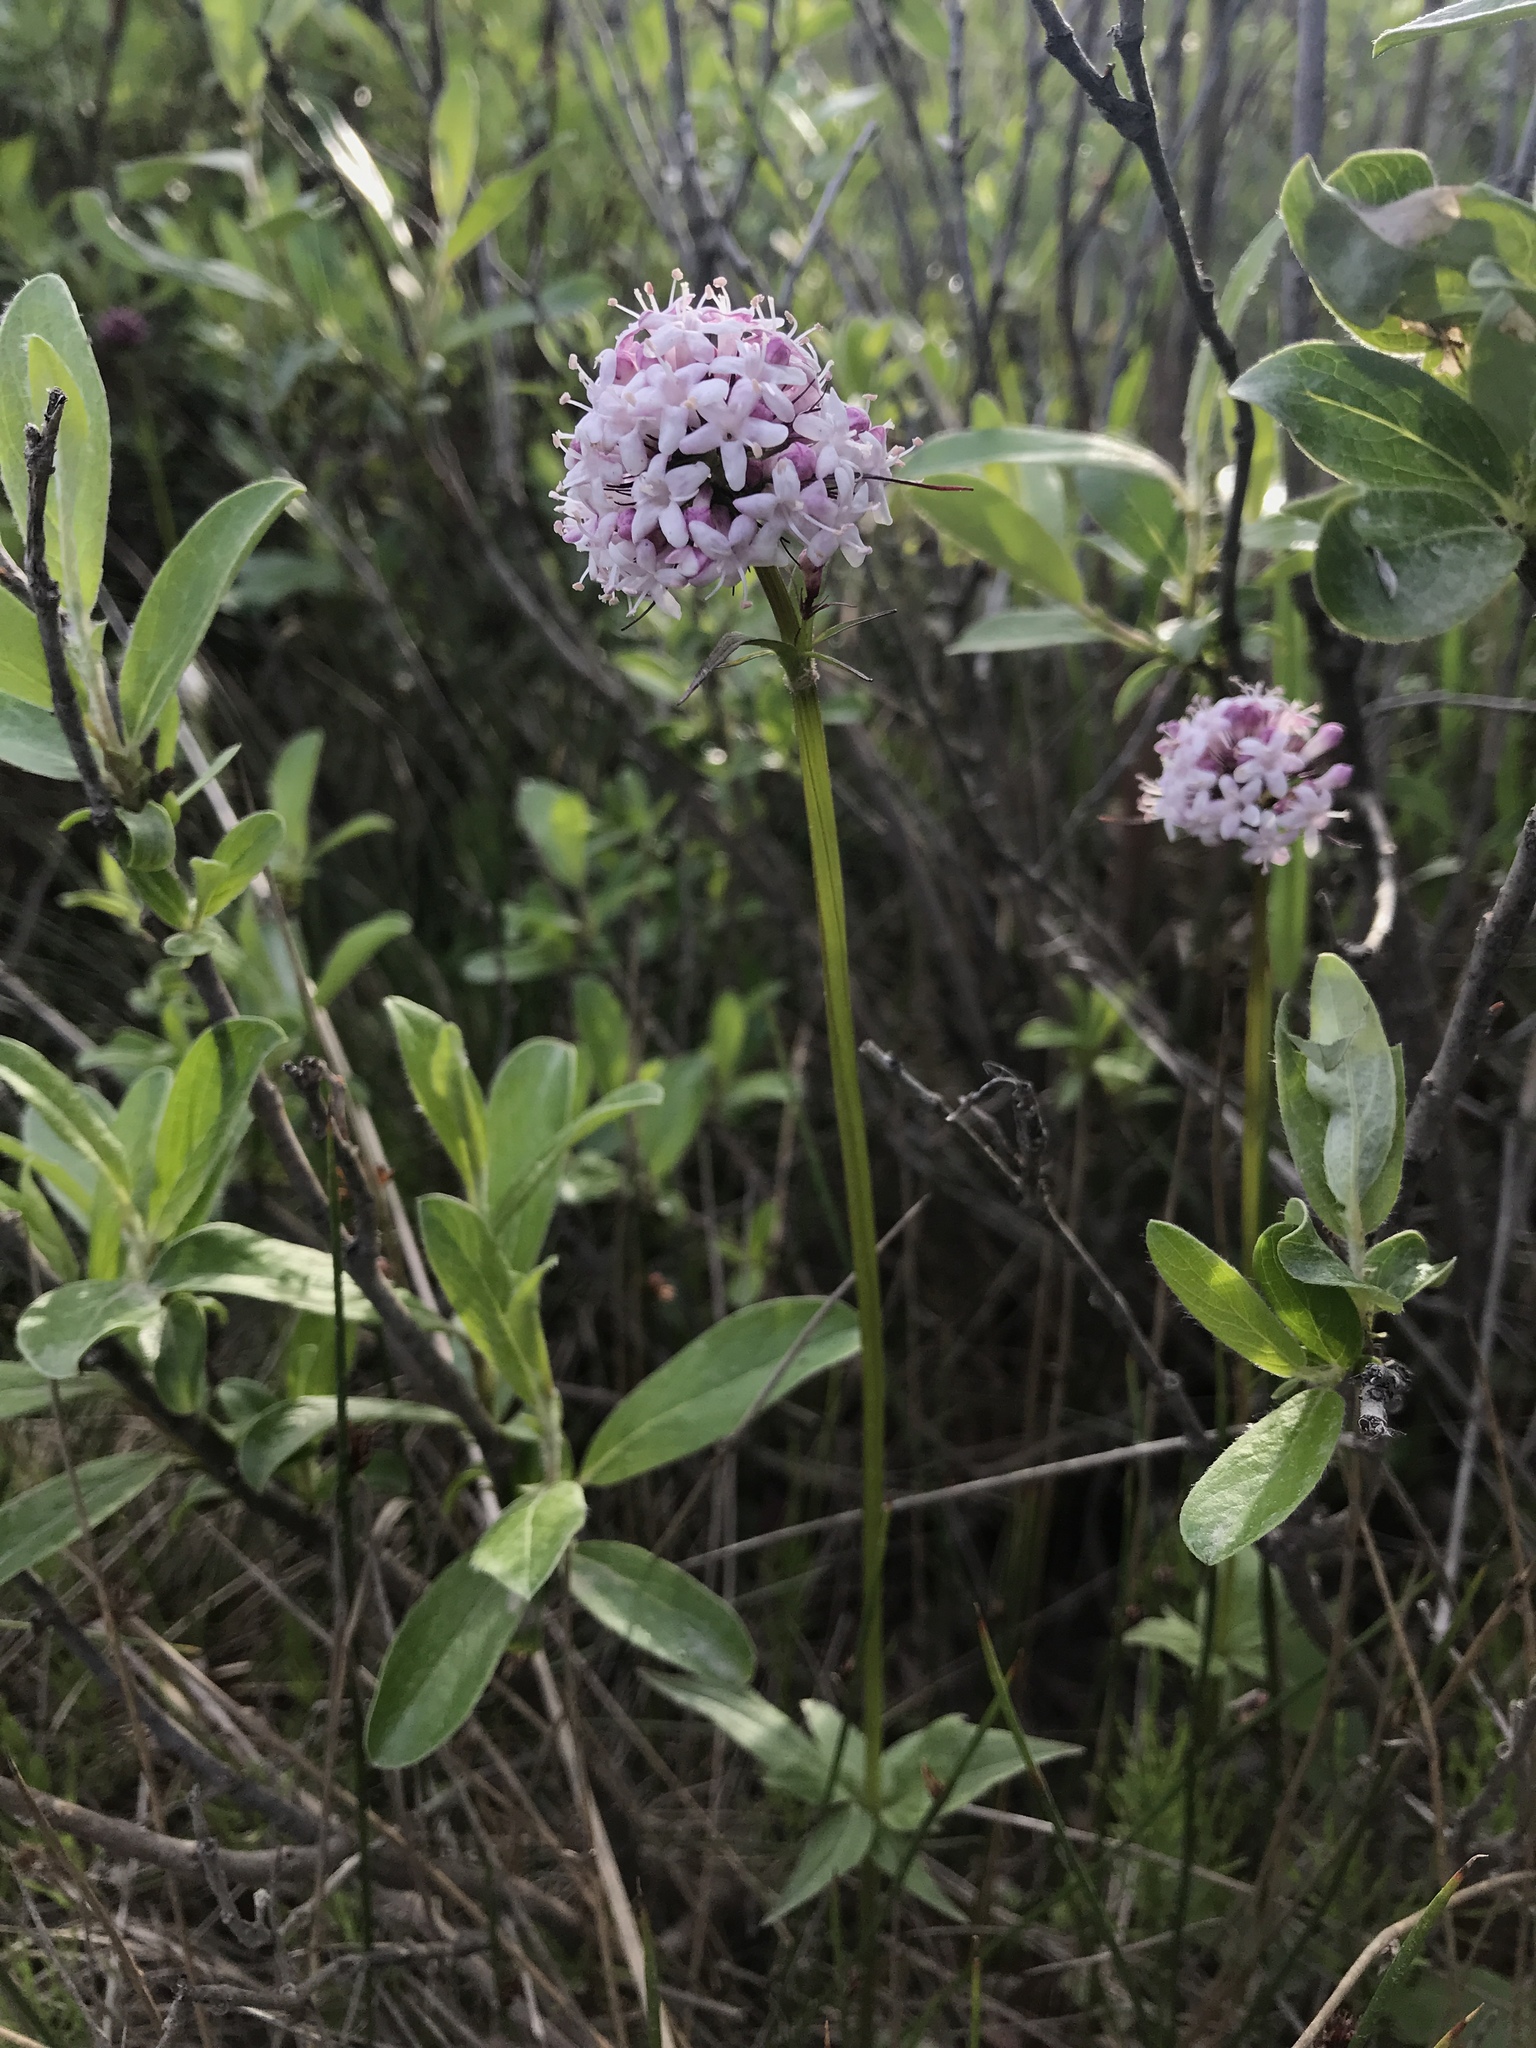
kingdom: Plantae
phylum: Tracheophyta
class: Magnoliopsida
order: Dipsacales
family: Caprifoliaceae
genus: Valeriana
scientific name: Valeriana capitata
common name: Capitate valerian
